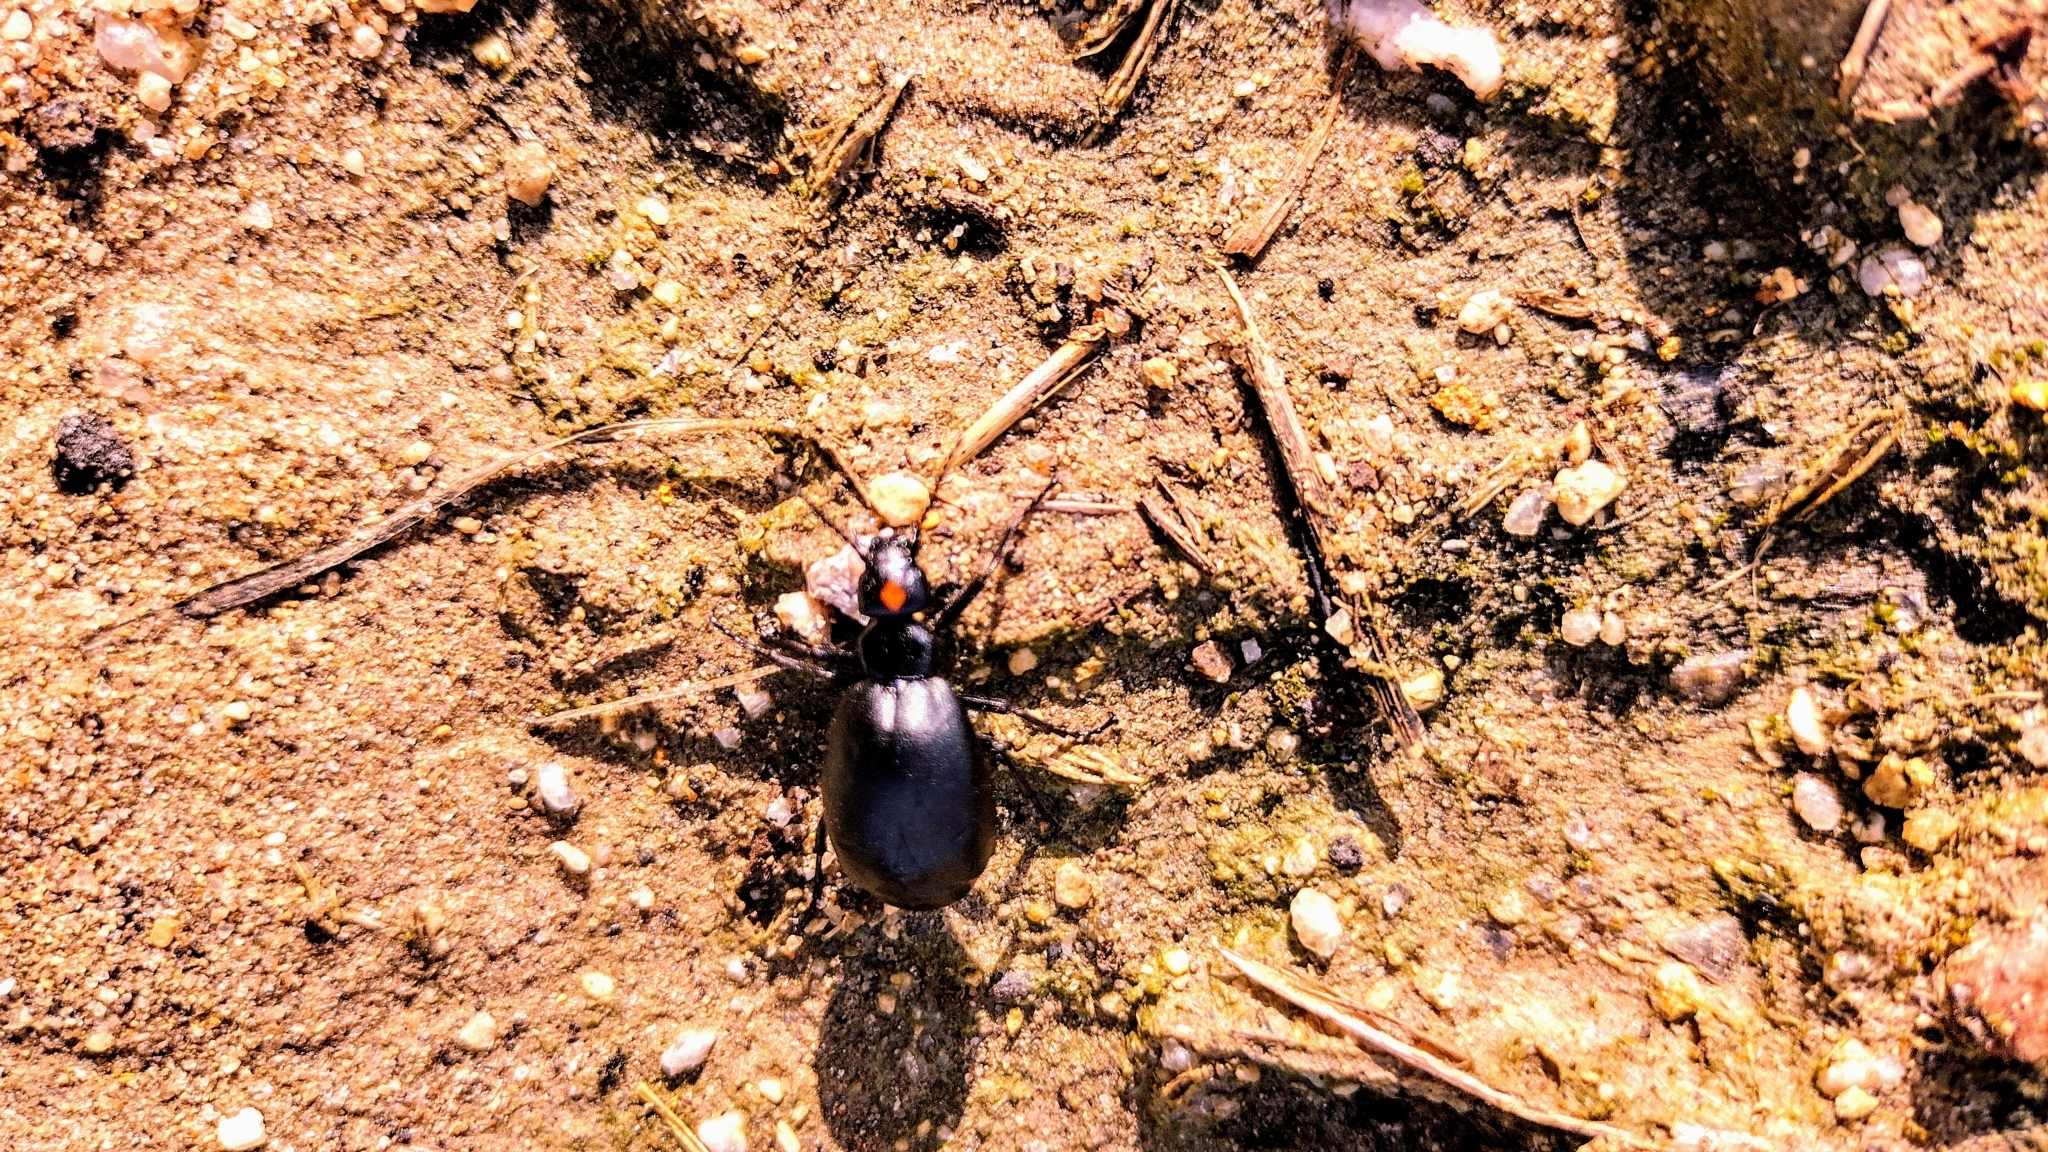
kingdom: Animalia
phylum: Arthropoda
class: Insecta
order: Coleoptera
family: Meloidae
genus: Lytta
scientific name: Lytta sublaevis
